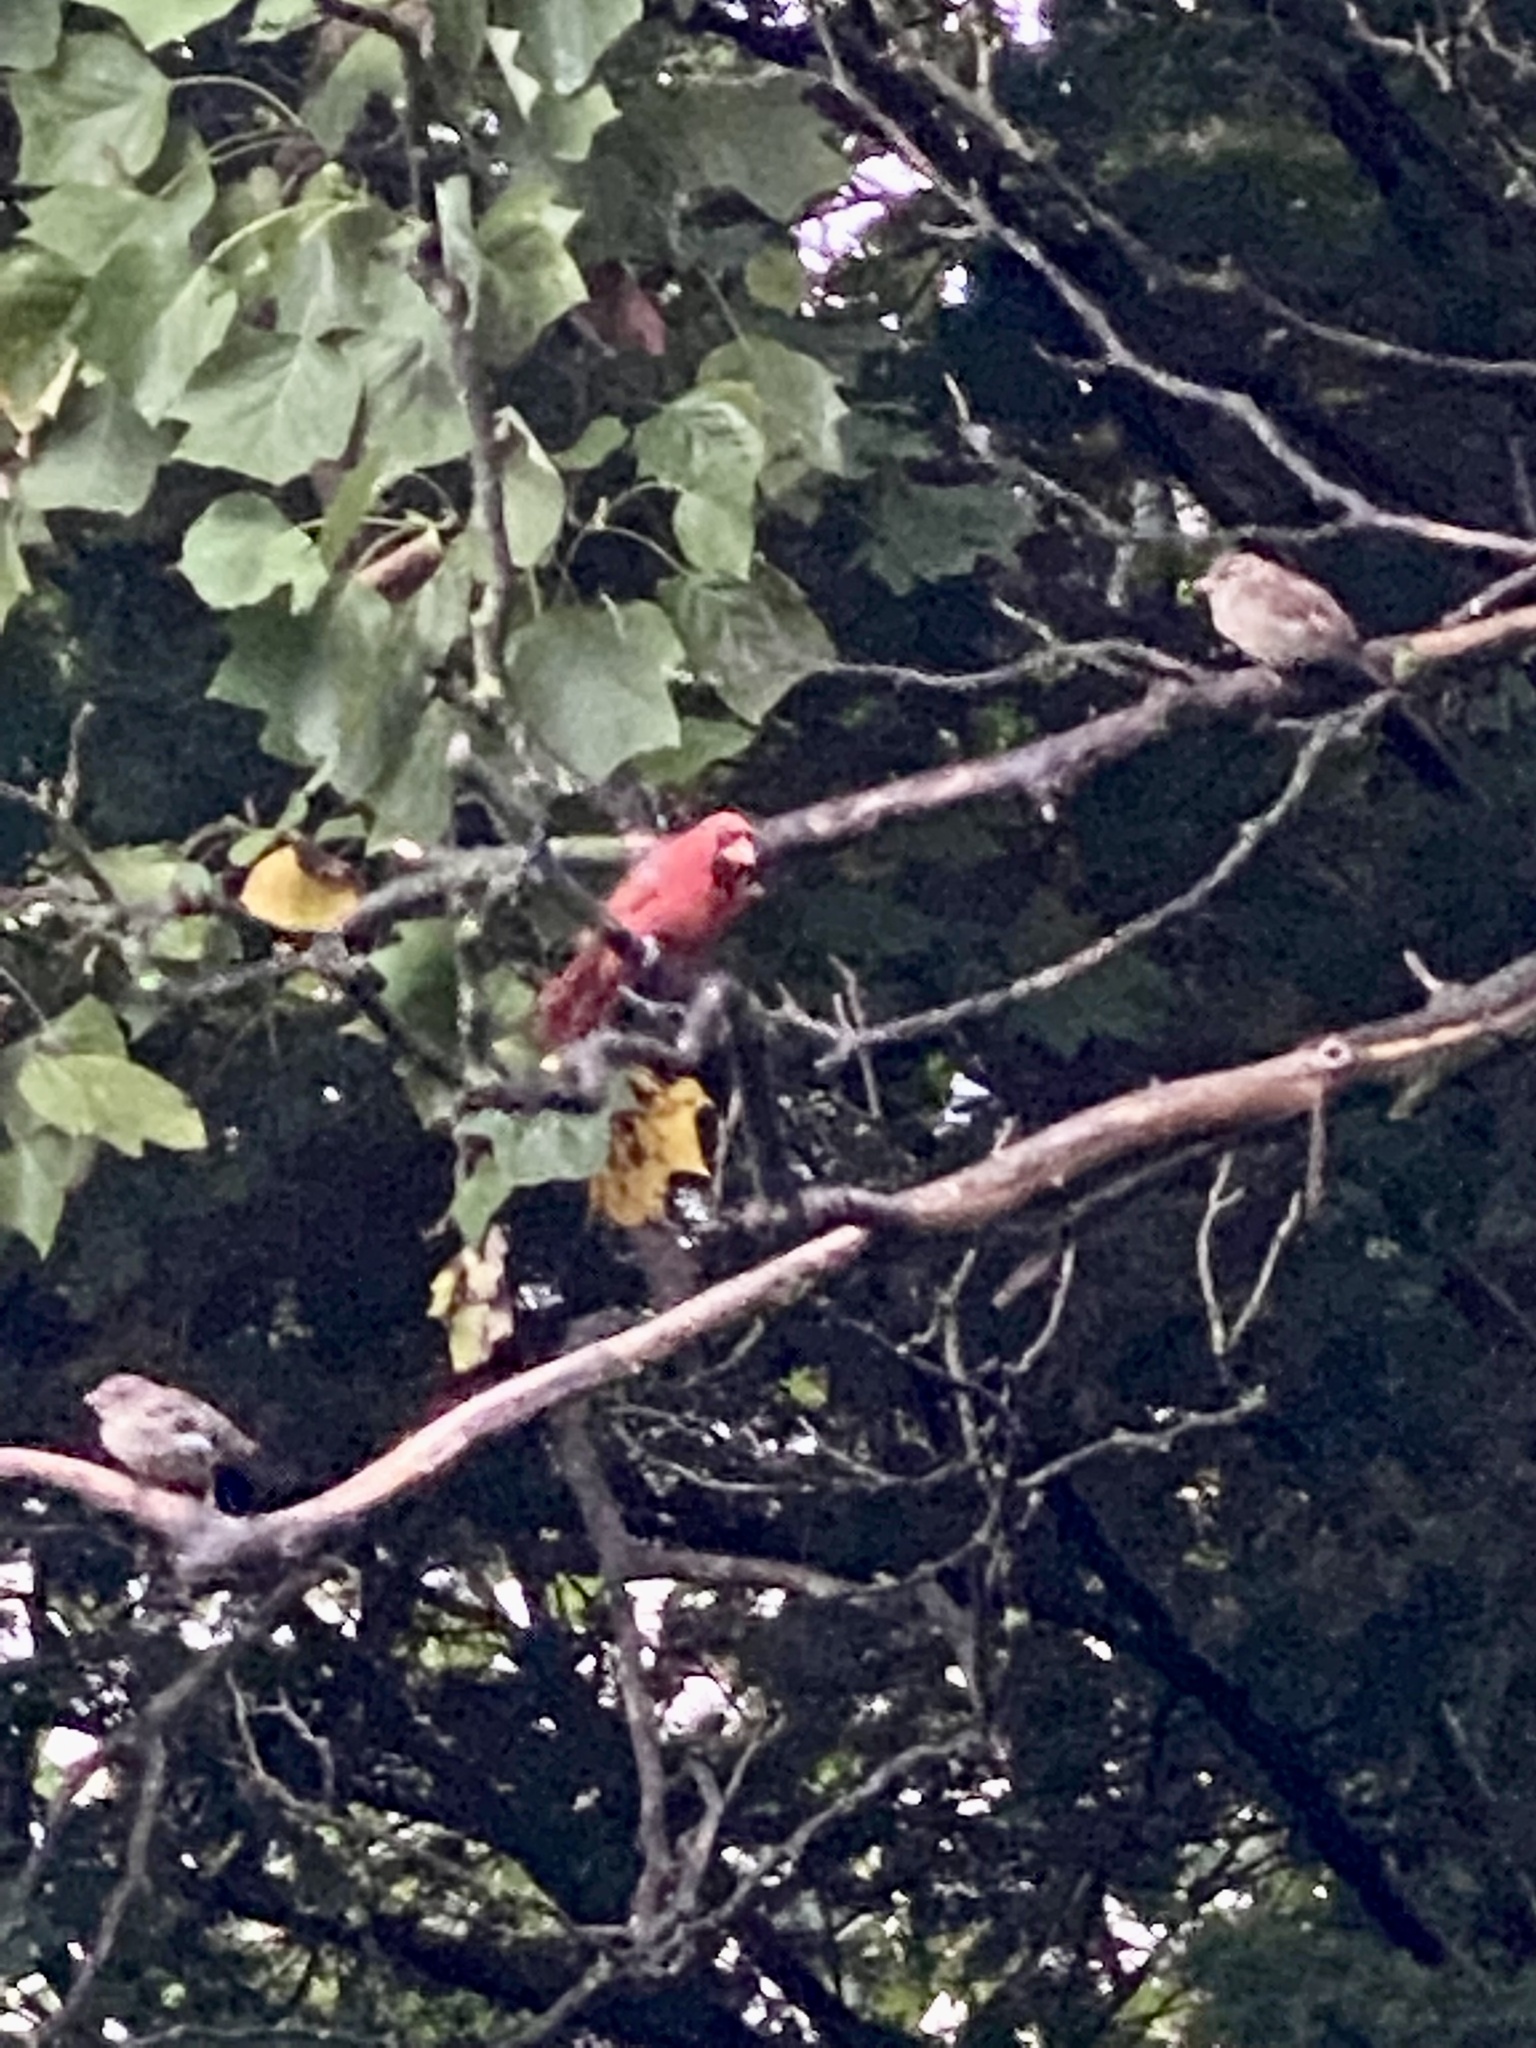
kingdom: Animalia
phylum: Chordata
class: Aves
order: Passeriformes
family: Cardinalidae
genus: Cardinalis
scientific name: Cardinalis cardinalis
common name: Northern cardinal
